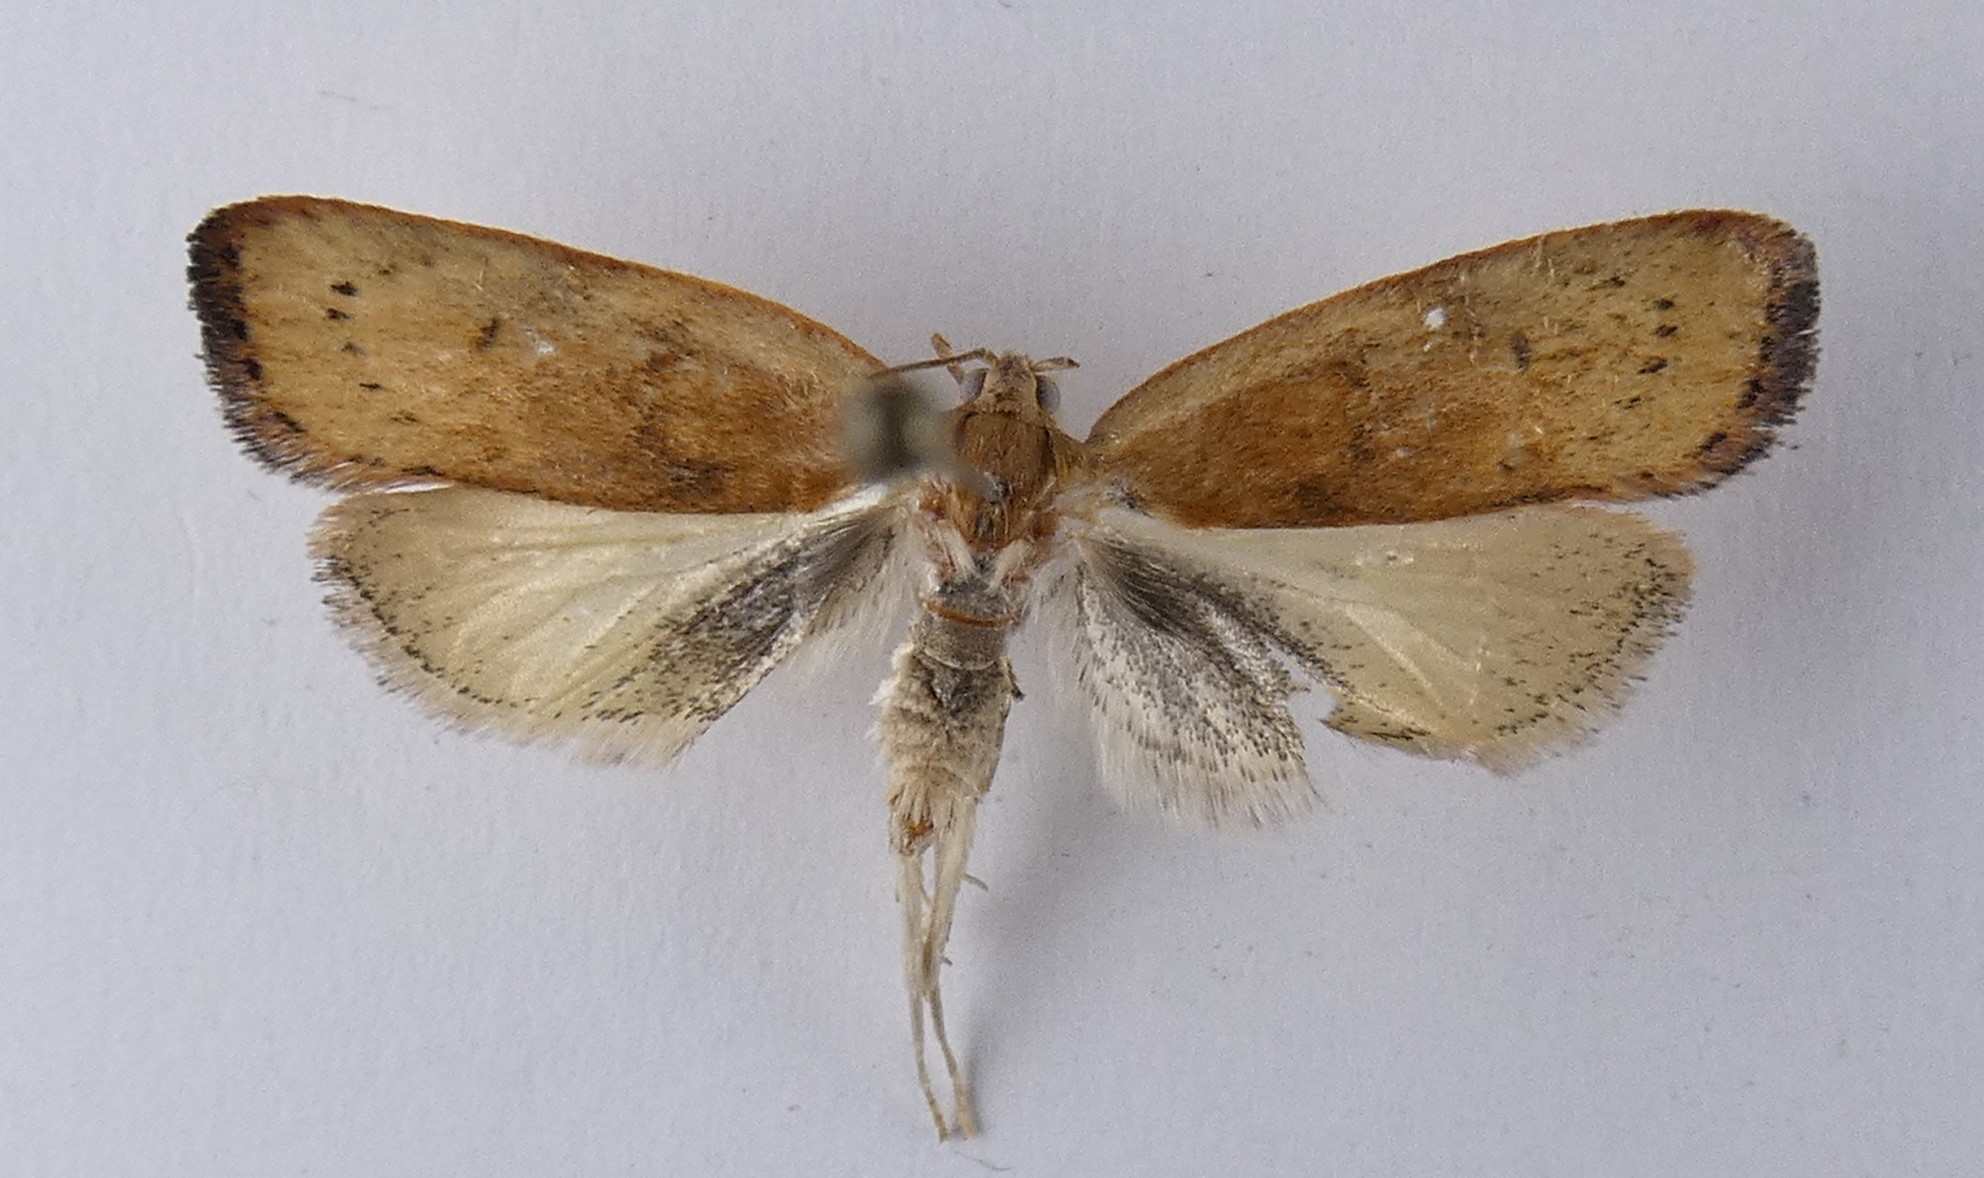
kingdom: Animalia
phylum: Arthropoda
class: Insecta
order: Lepidoptera
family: Depressariidae
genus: Phaeosaces
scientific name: Phaeosaces coarctatella
